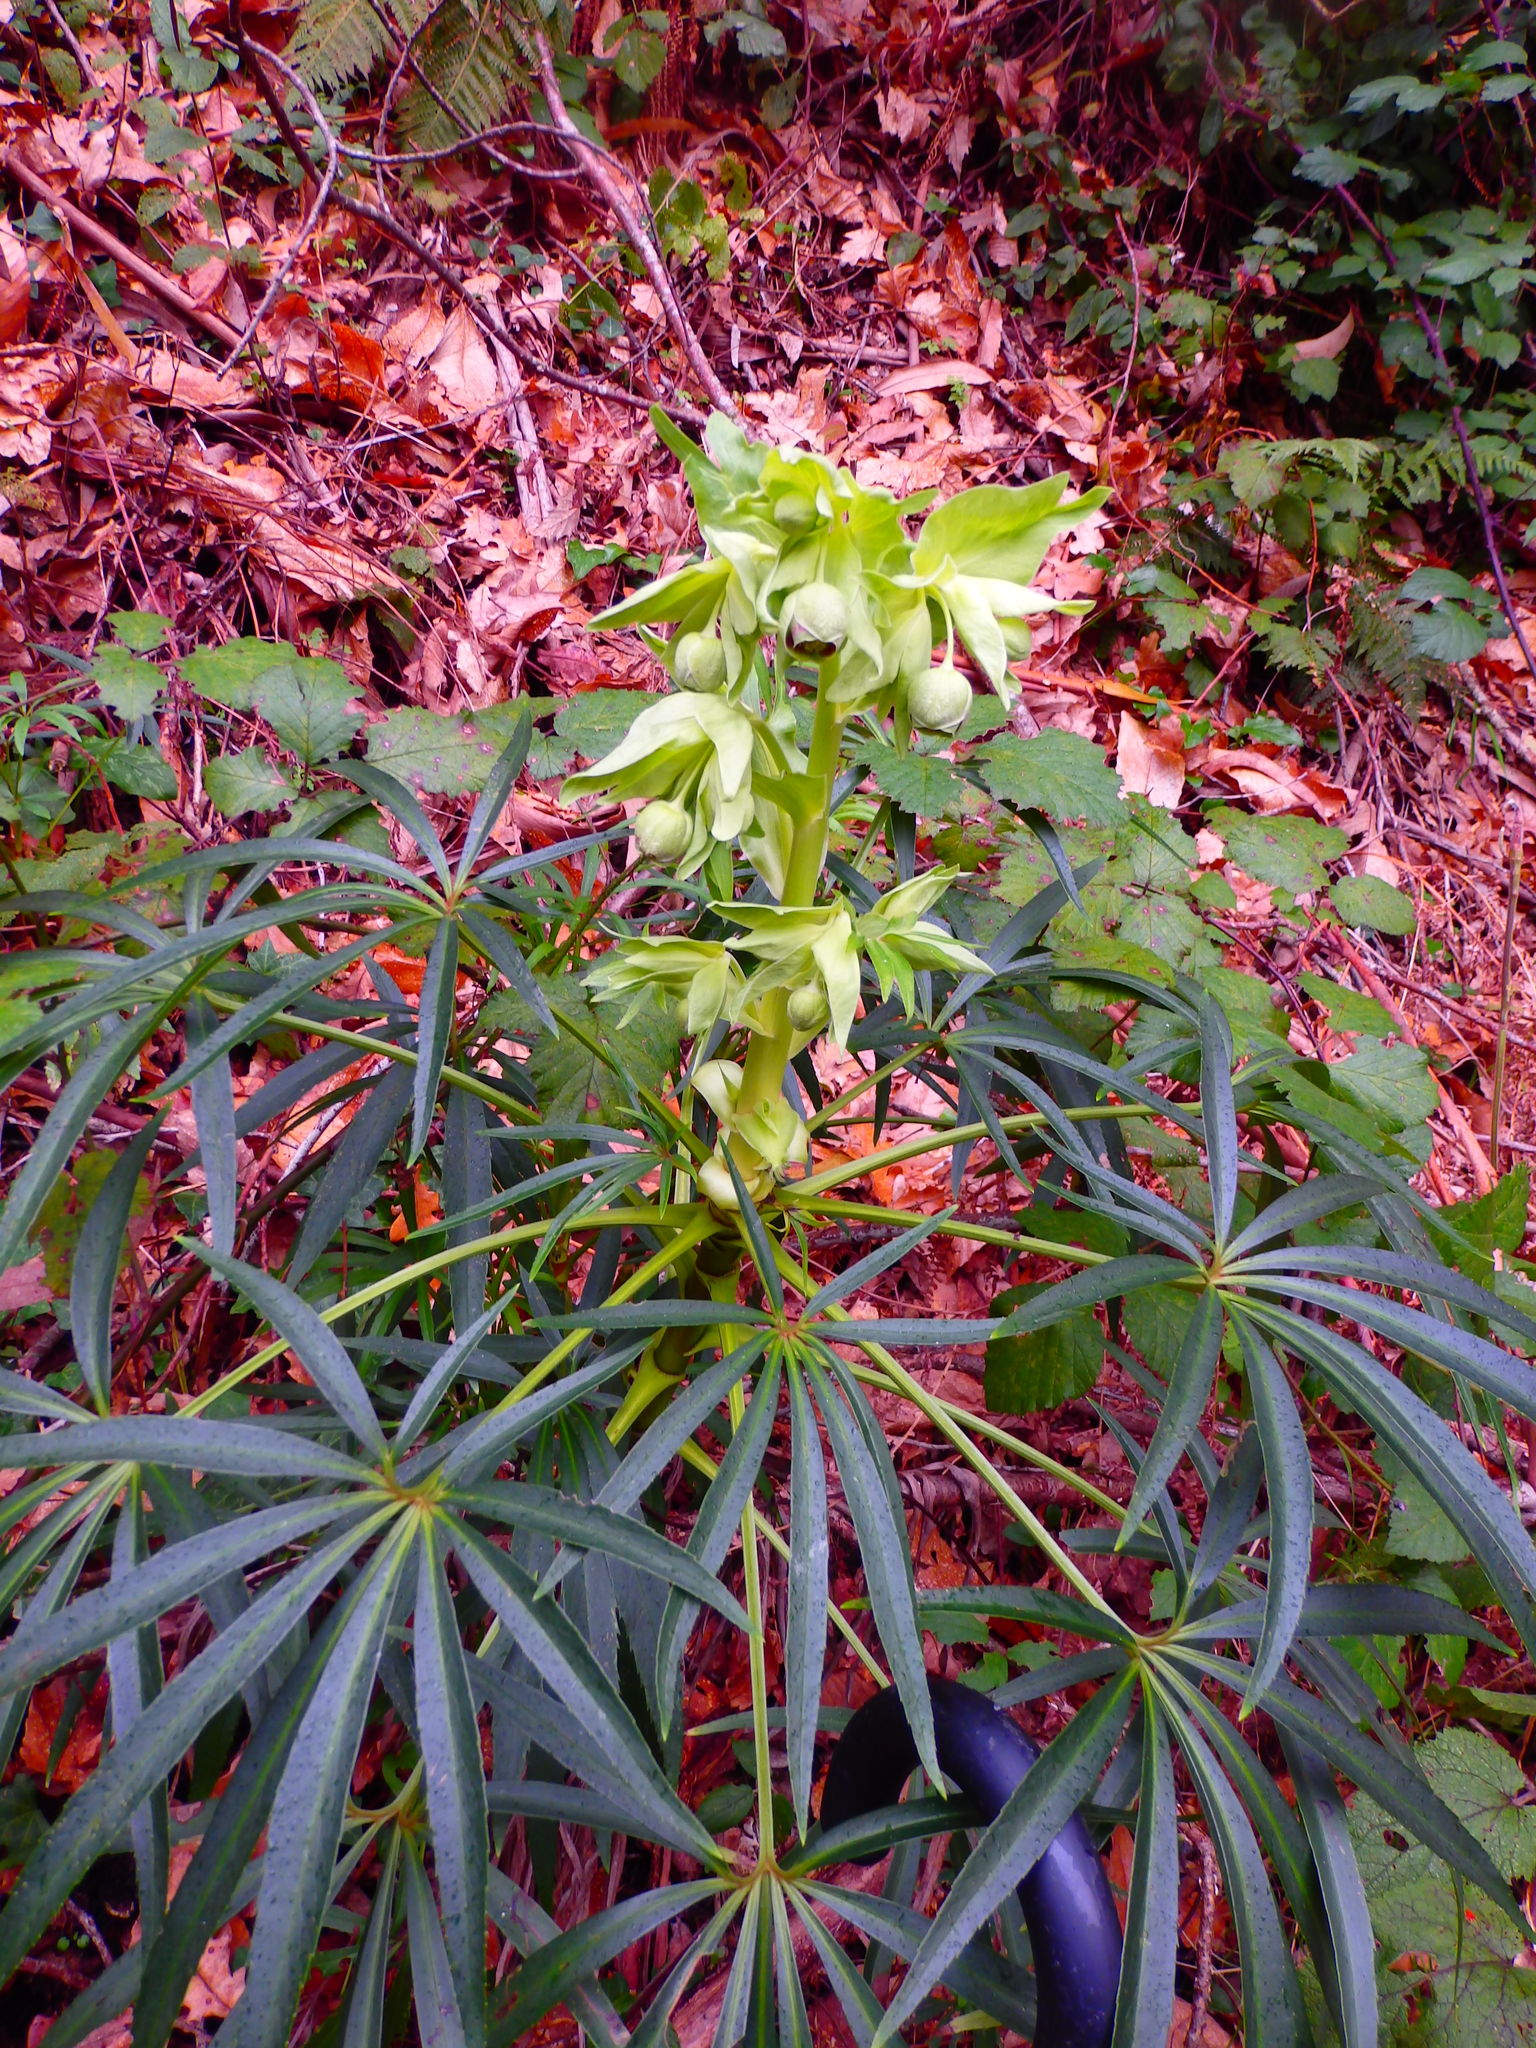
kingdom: Plantae
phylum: Tracheophyta
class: Magnoliopsida
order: Ranunculales
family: Ranunculaceae
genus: Helleborus
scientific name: Helleborus foetidus
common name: Stinking hellebore
